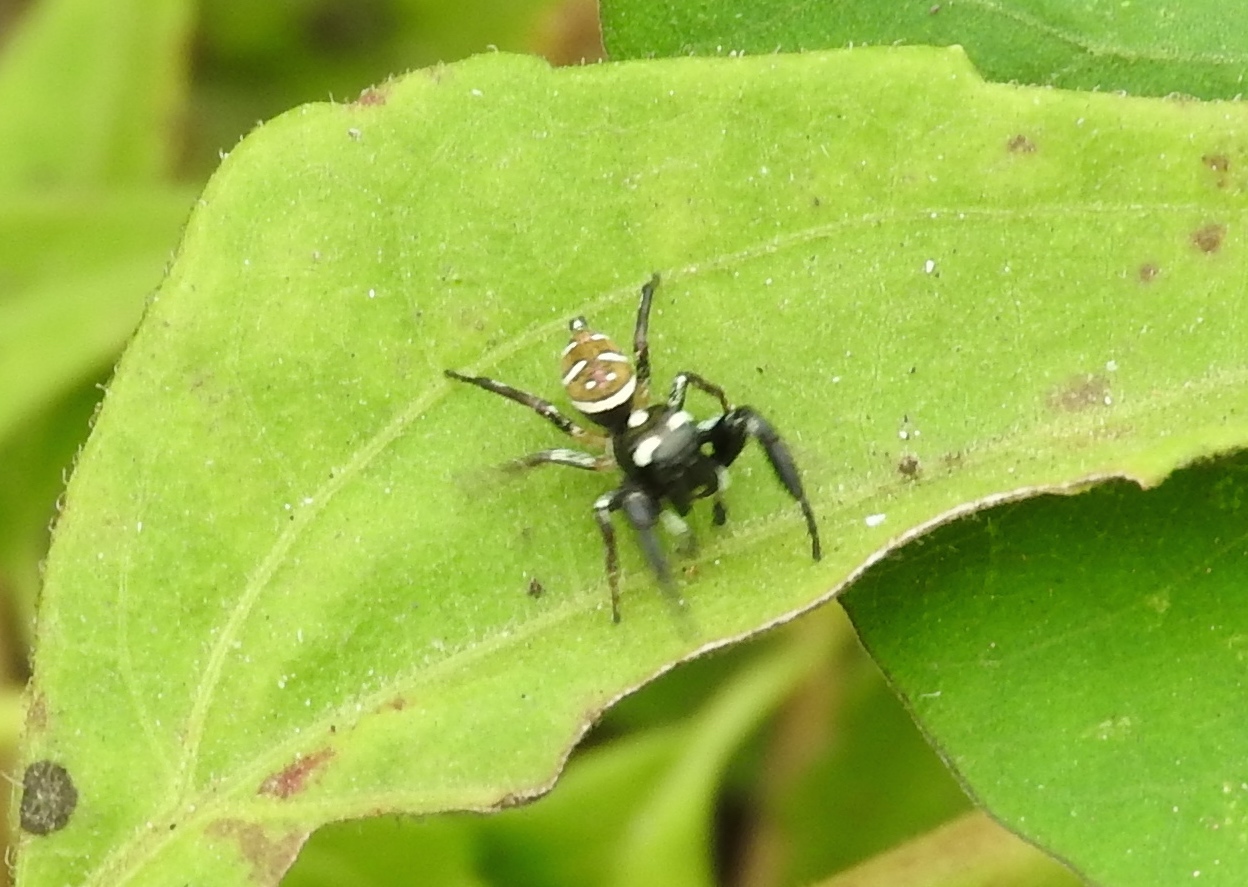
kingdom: Animalia
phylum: Arthropoda
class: Arachnida
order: Araneae
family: Salticidae
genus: Sassacus
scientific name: Sassacus
